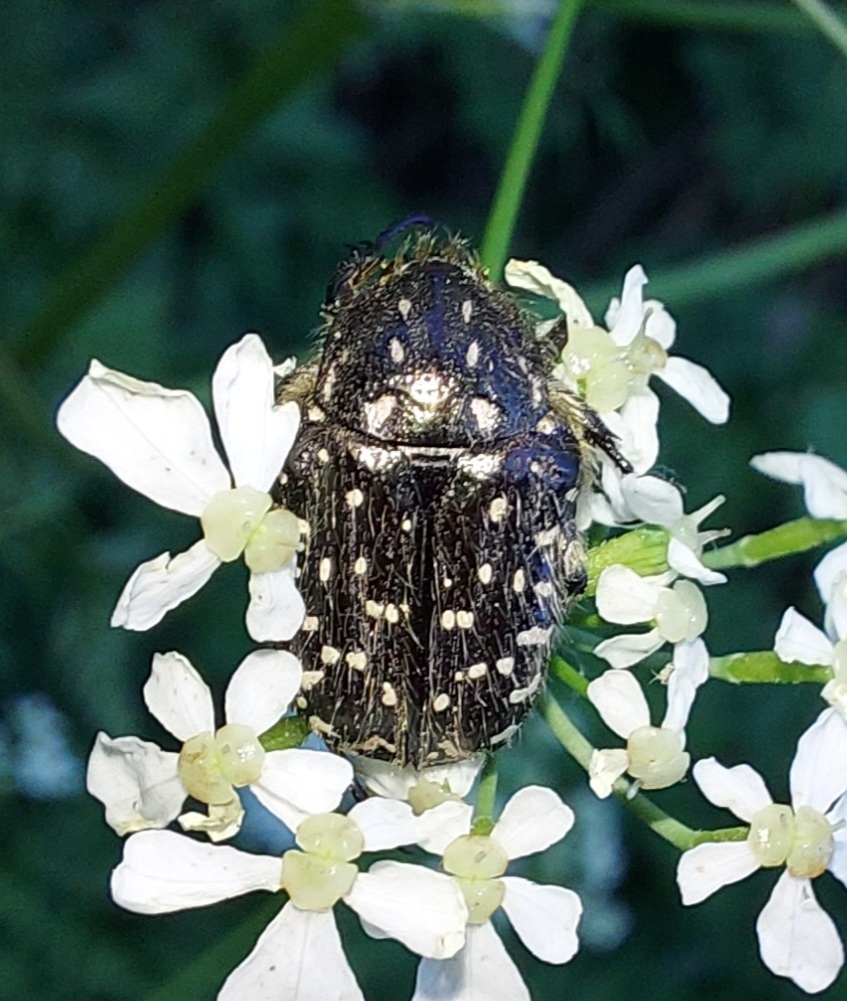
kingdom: Animalia
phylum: Arthropoda
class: Insecta
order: Coleoptera
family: Scarabaeidae
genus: Oxythyrea
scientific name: Oxythyrea funesta
